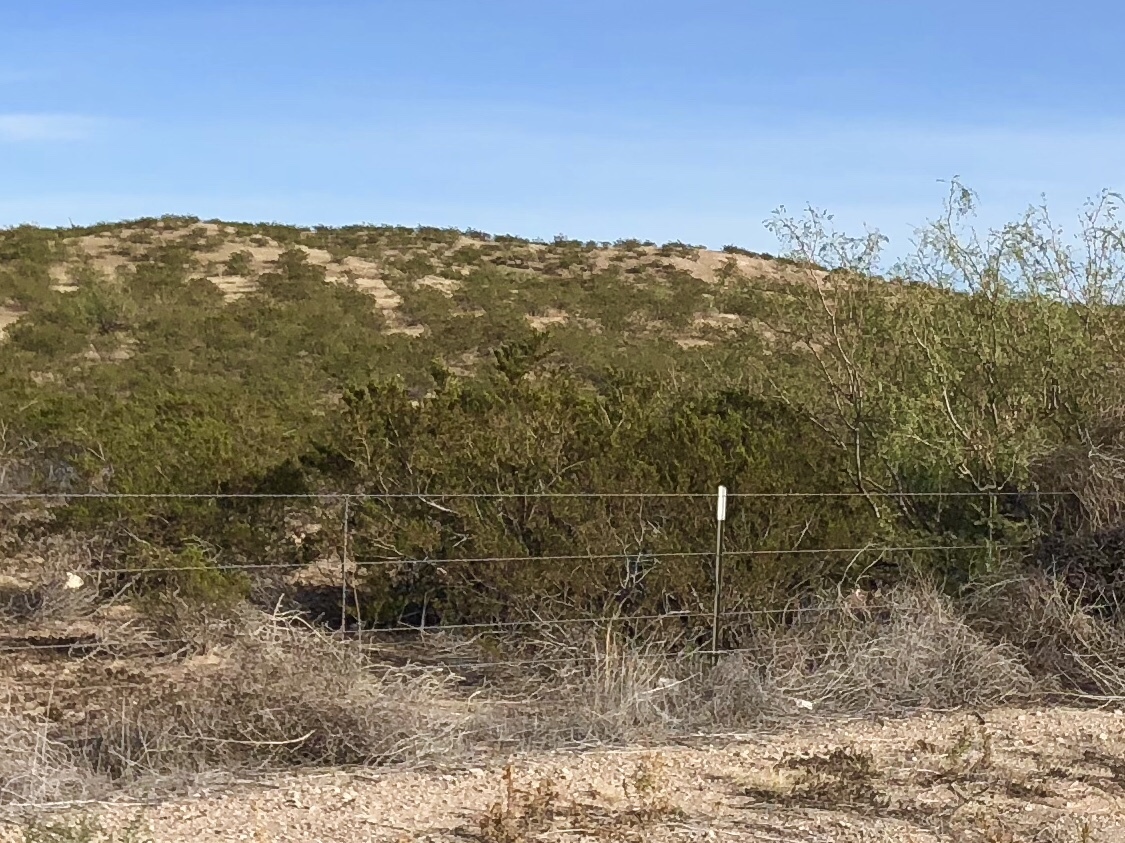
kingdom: Plantae
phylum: Tracheophyta
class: Magnoliopsida
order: Zygophyllales
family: Zygophyllaceae
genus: Larrea
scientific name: Larrea tridentata
